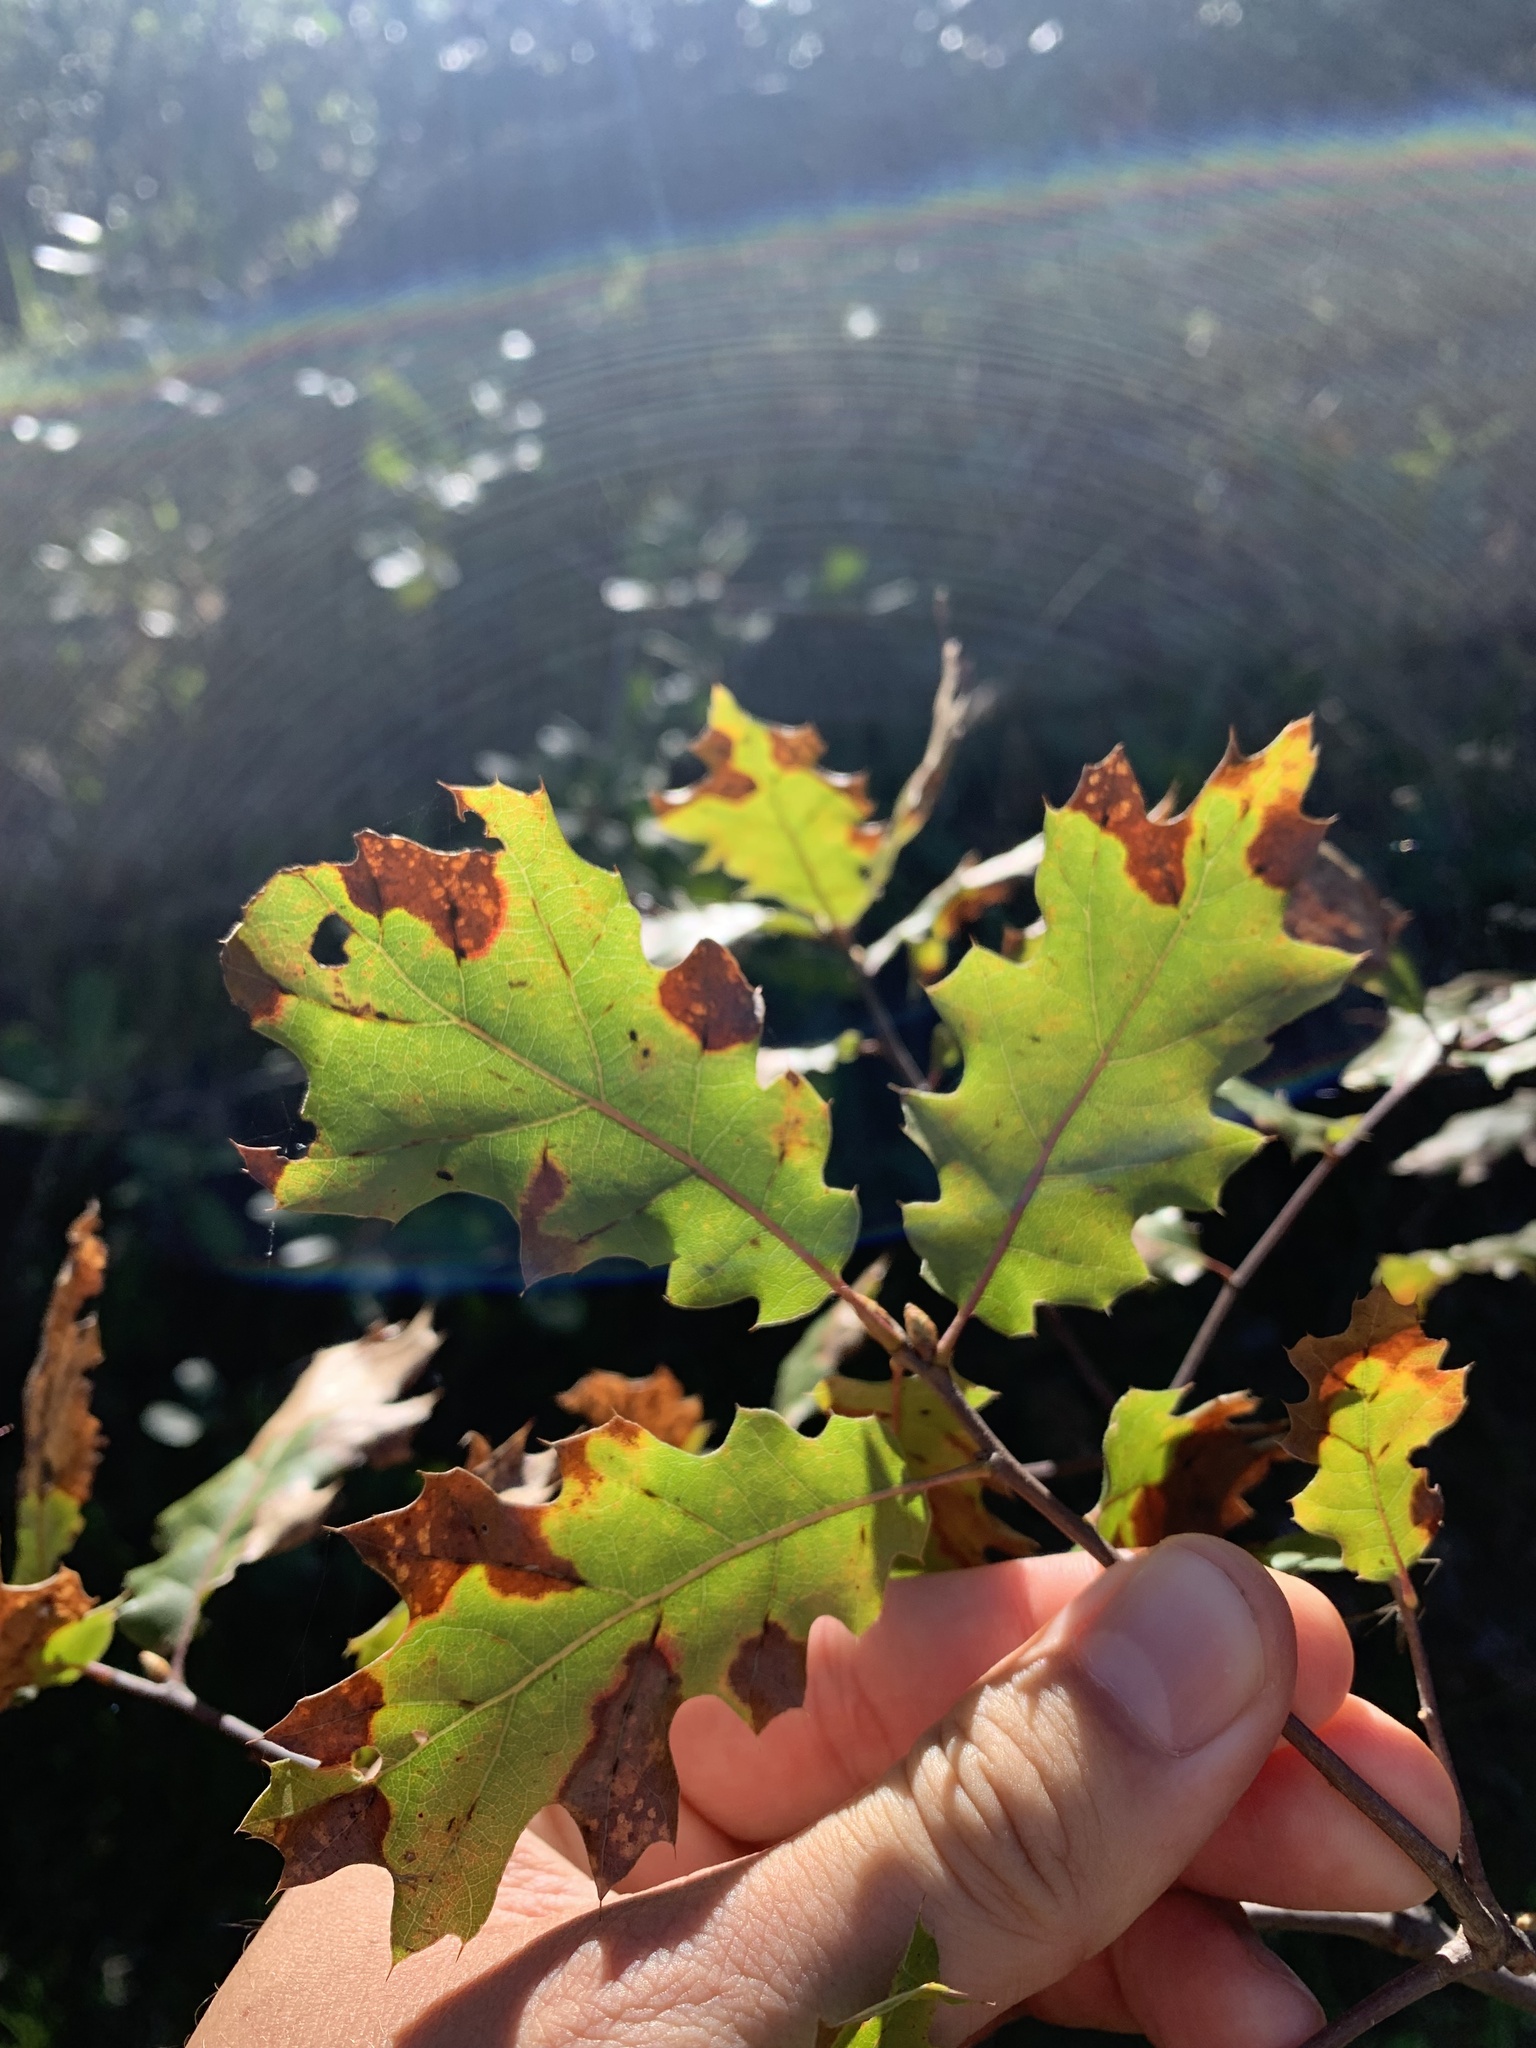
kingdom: Plantae
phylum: Tracheophyta
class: Magnoliopsida
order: Fagales
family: Fagaceae
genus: Quercus
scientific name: Quercus morehus
